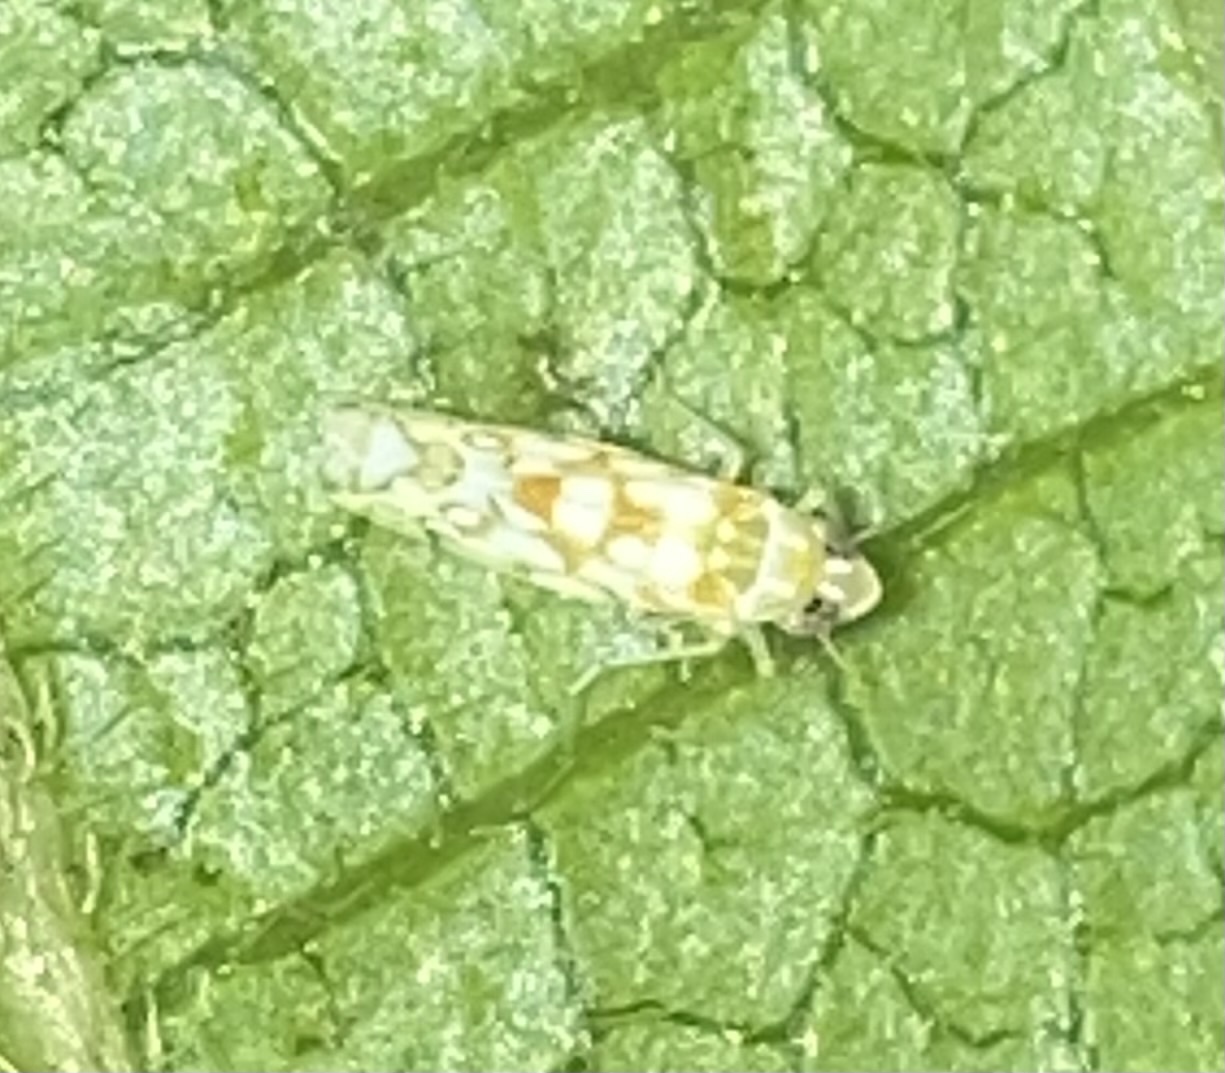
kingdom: Animalia
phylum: Arthropoda
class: Insecta
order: Hemiptera
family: Cicadellidae
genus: Protalebra
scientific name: Protalebra nexa
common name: Leafhopper
